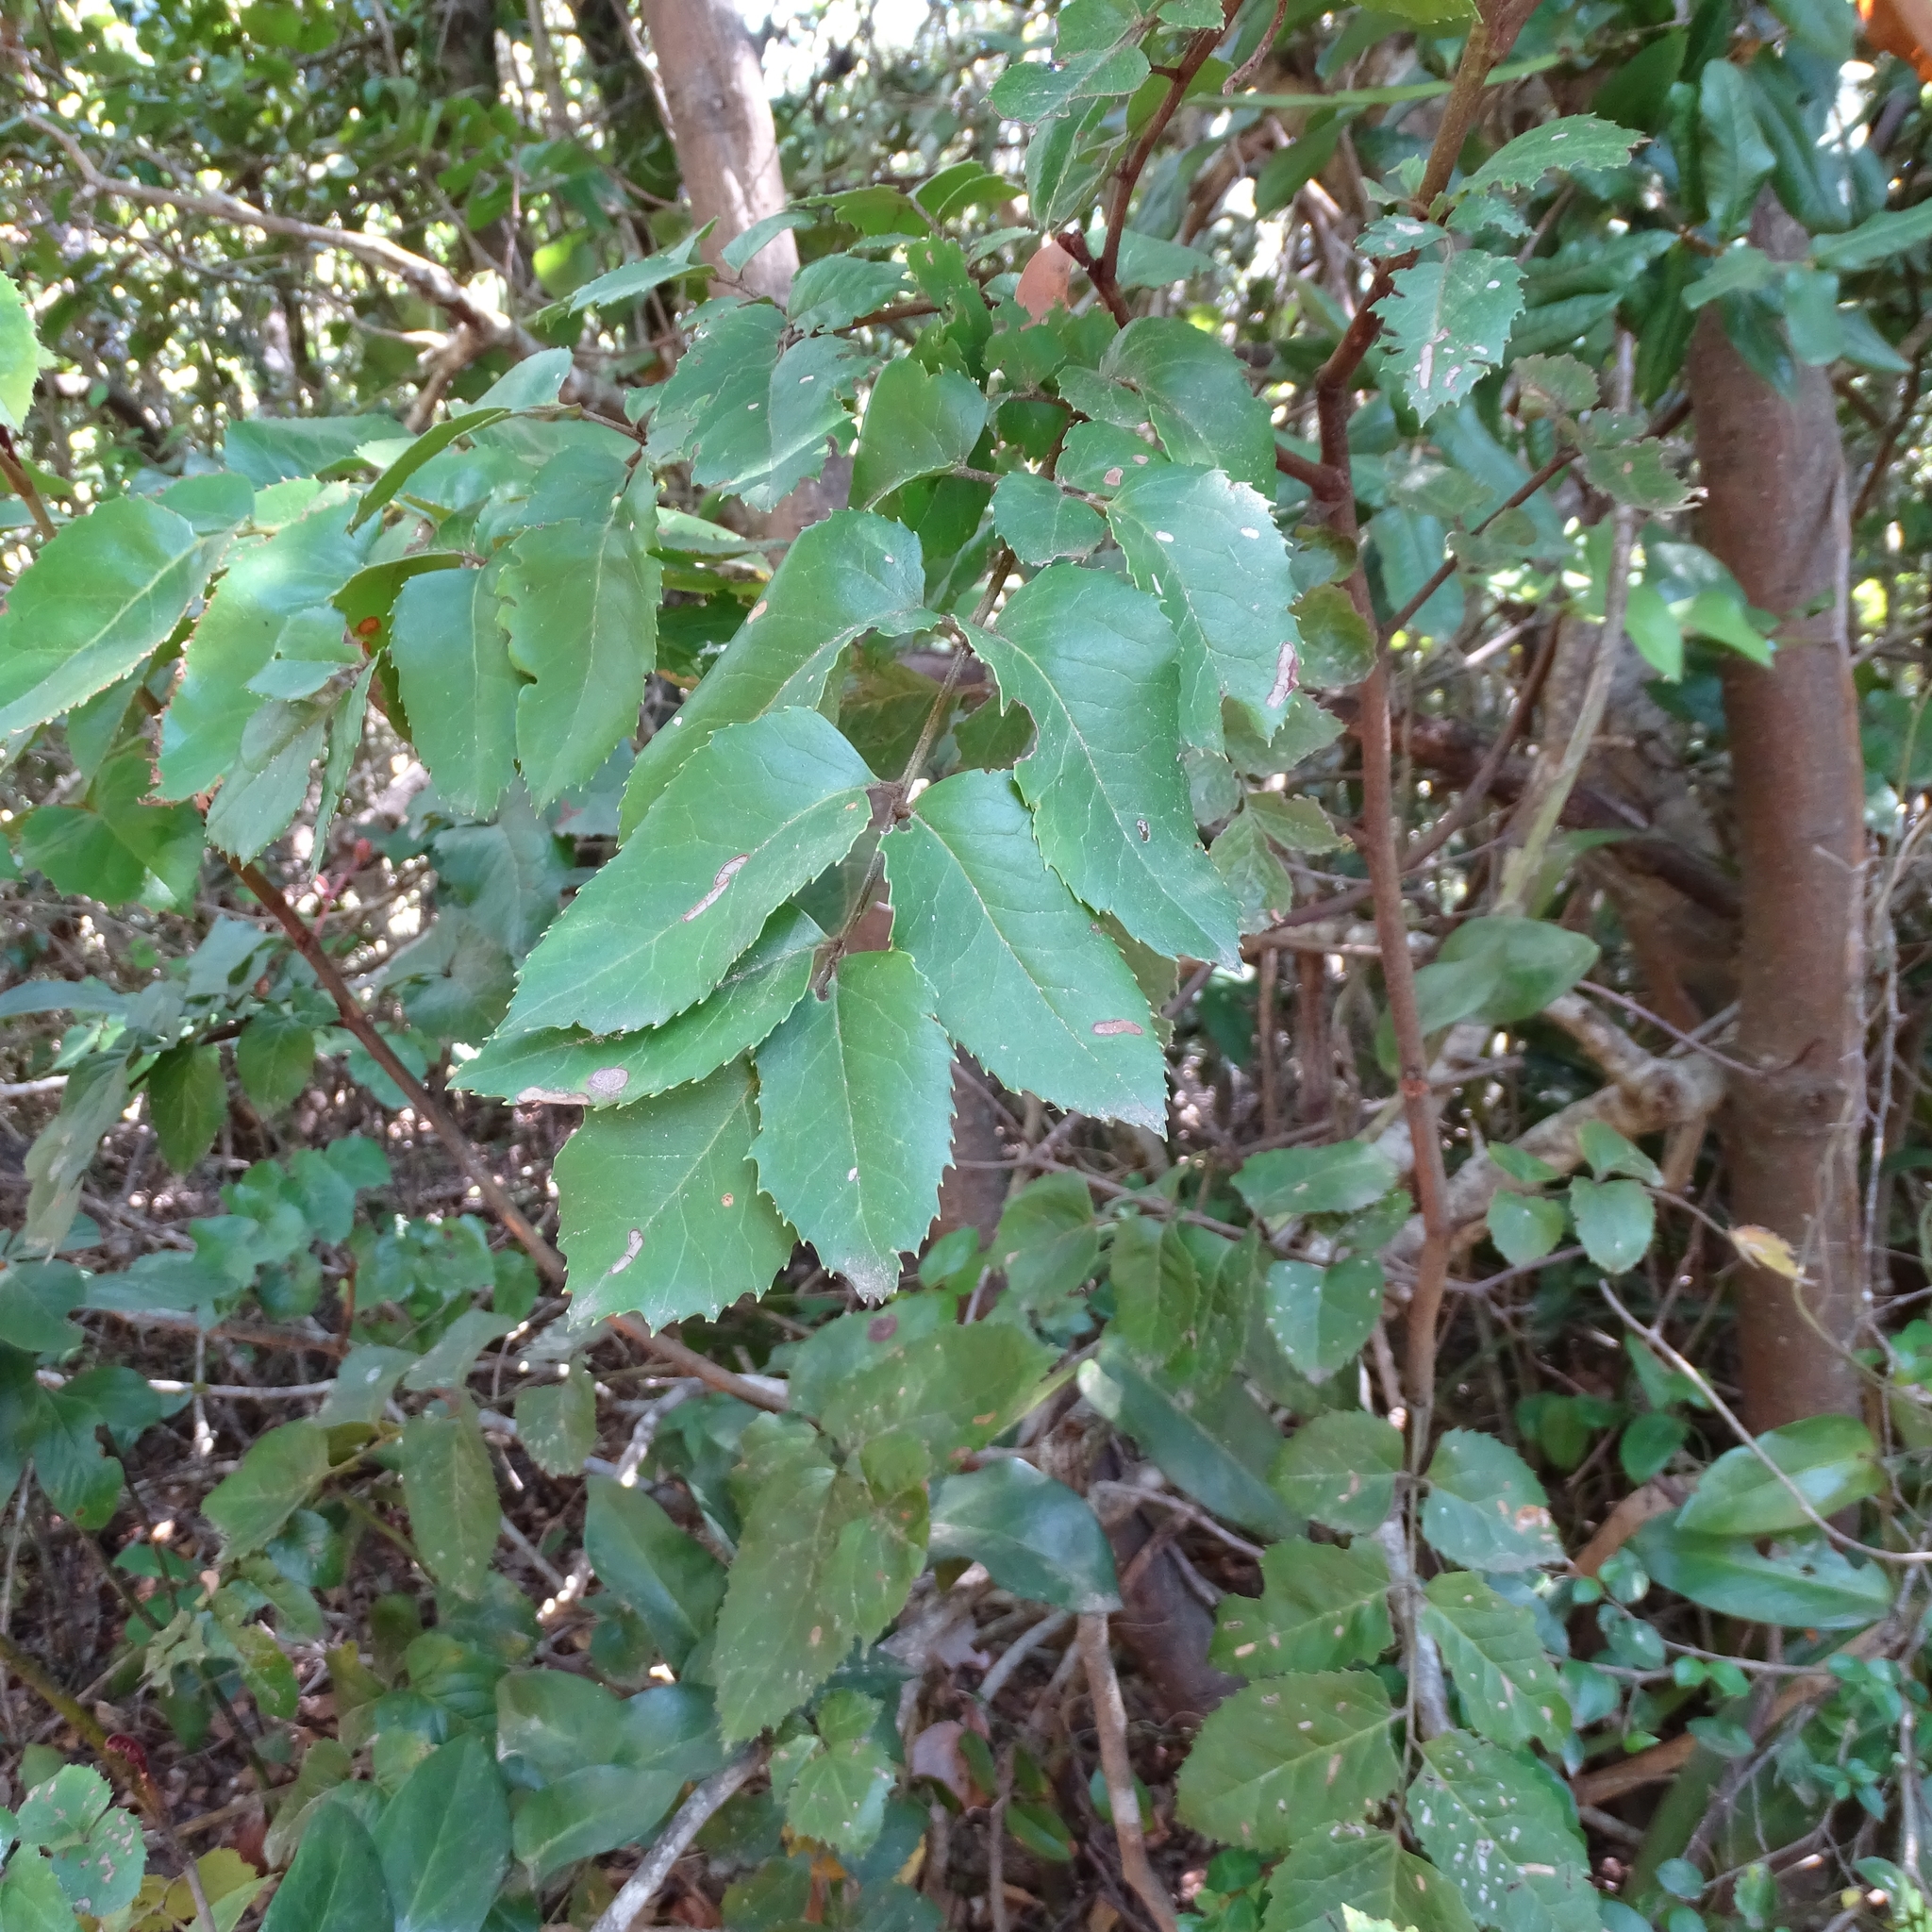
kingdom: Plantae
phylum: Tracheophyta
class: Magnoliopsida
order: Proteales
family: Proteaceae
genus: Gevuina
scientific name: Gevuina avellana
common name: Chilean hazel
